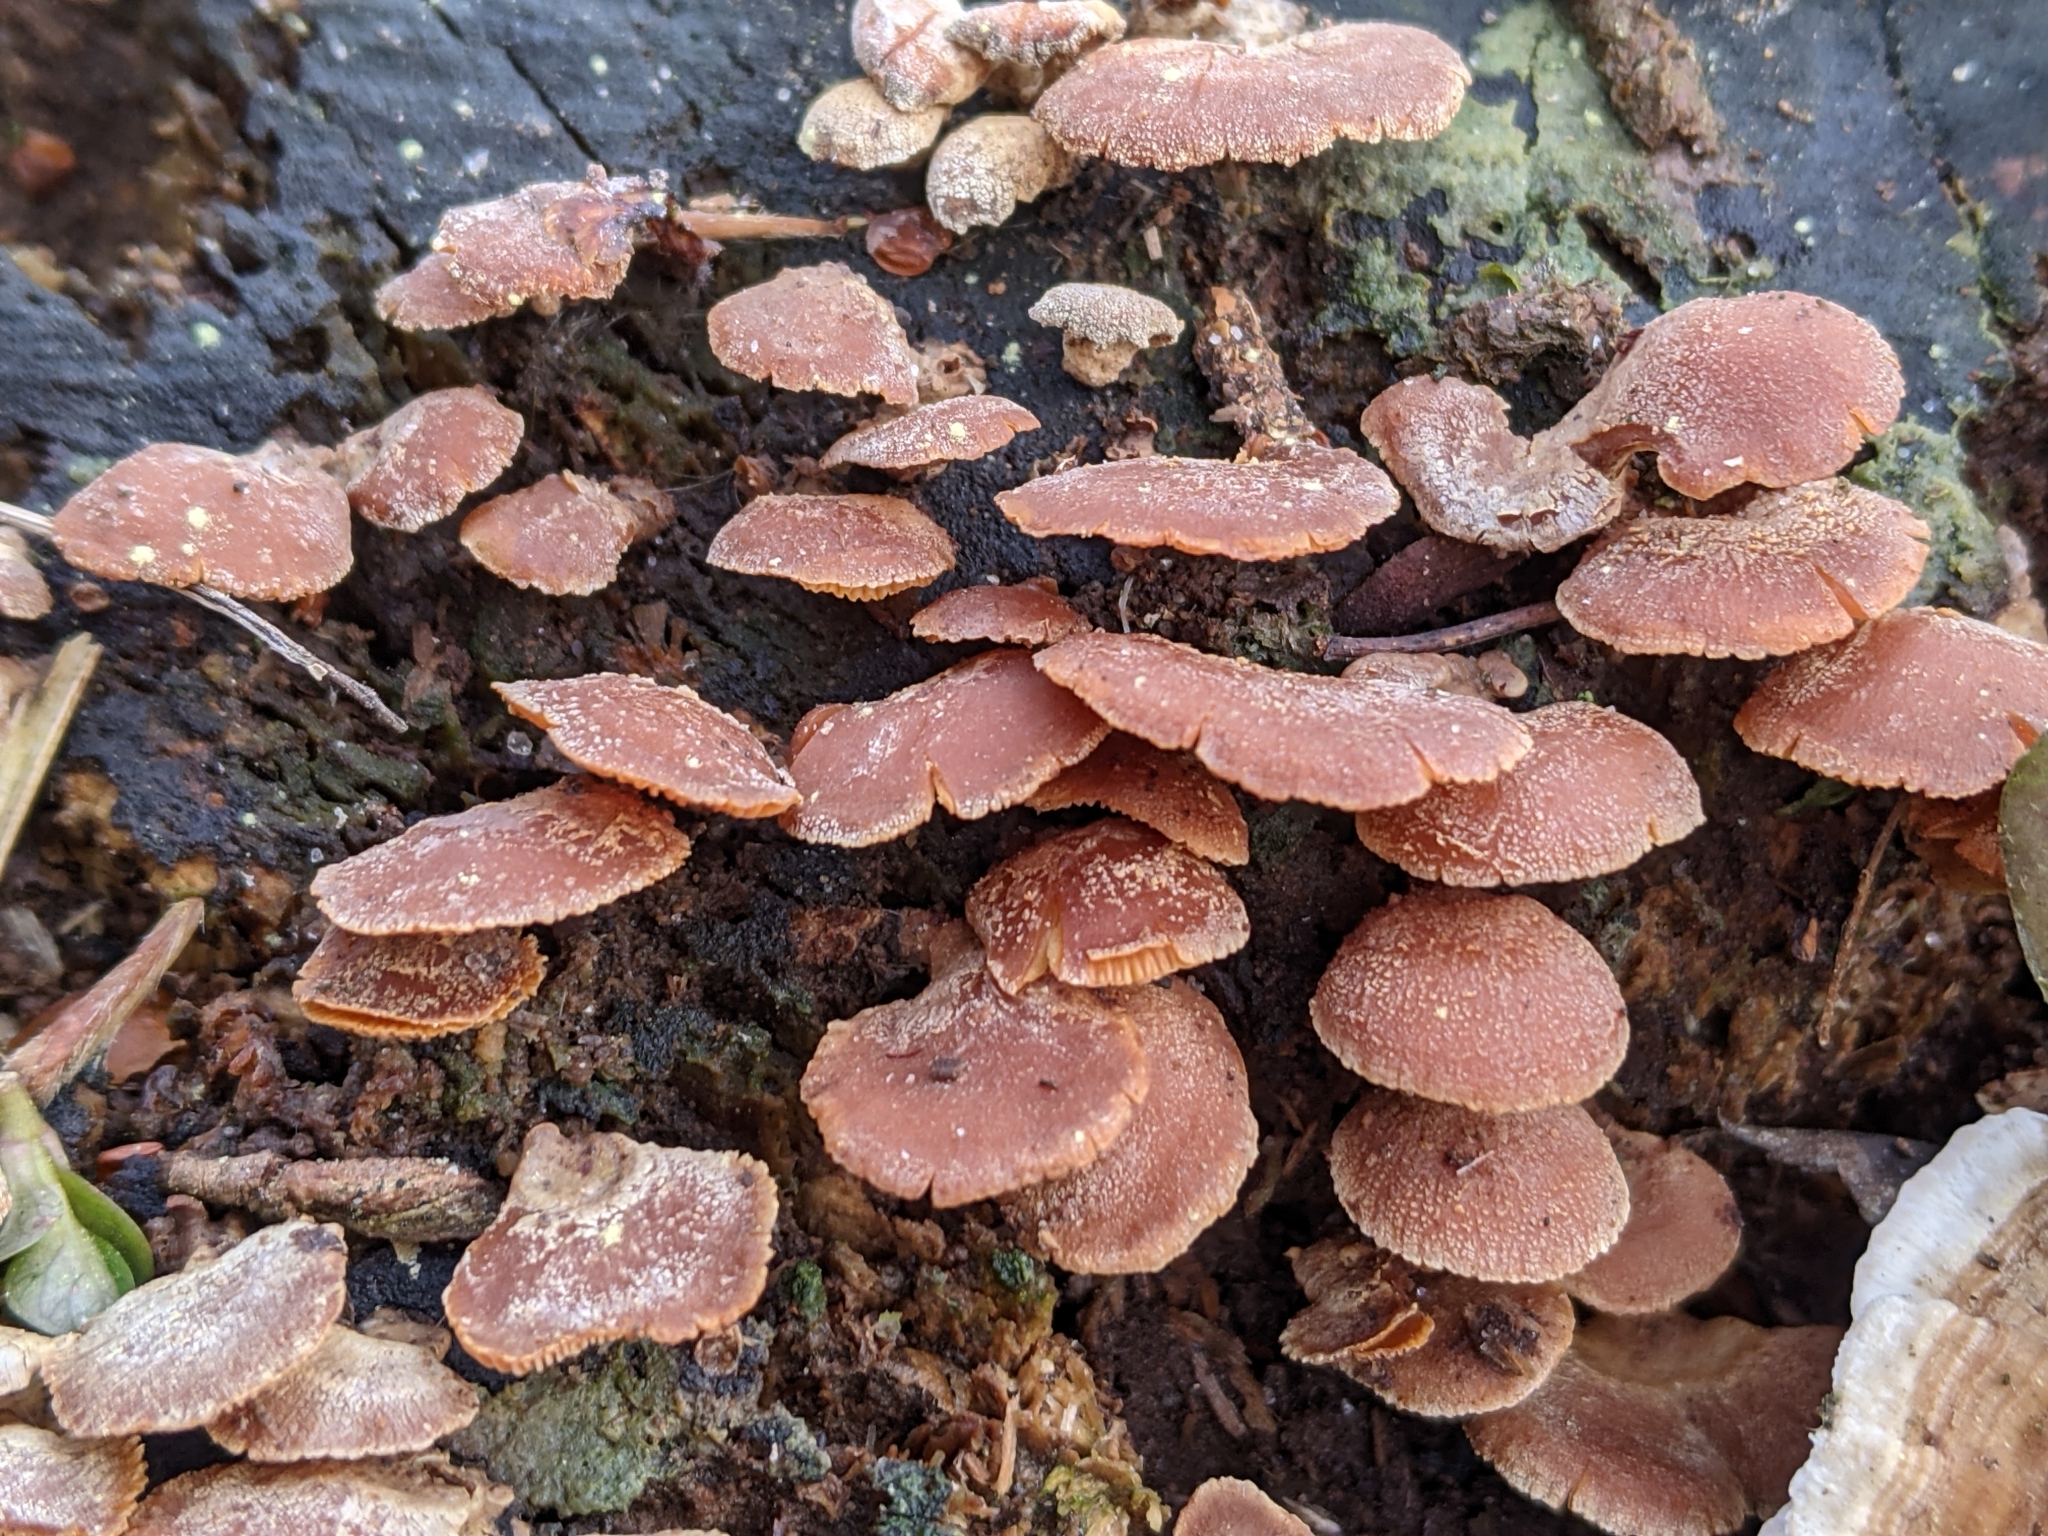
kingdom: Fungi
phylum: Basidiomycota
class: Agaricomycetes
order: Agaricales
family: Mycenaceae
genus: Panellus
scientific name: Panellus stipticus
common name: Bitter oysterling
